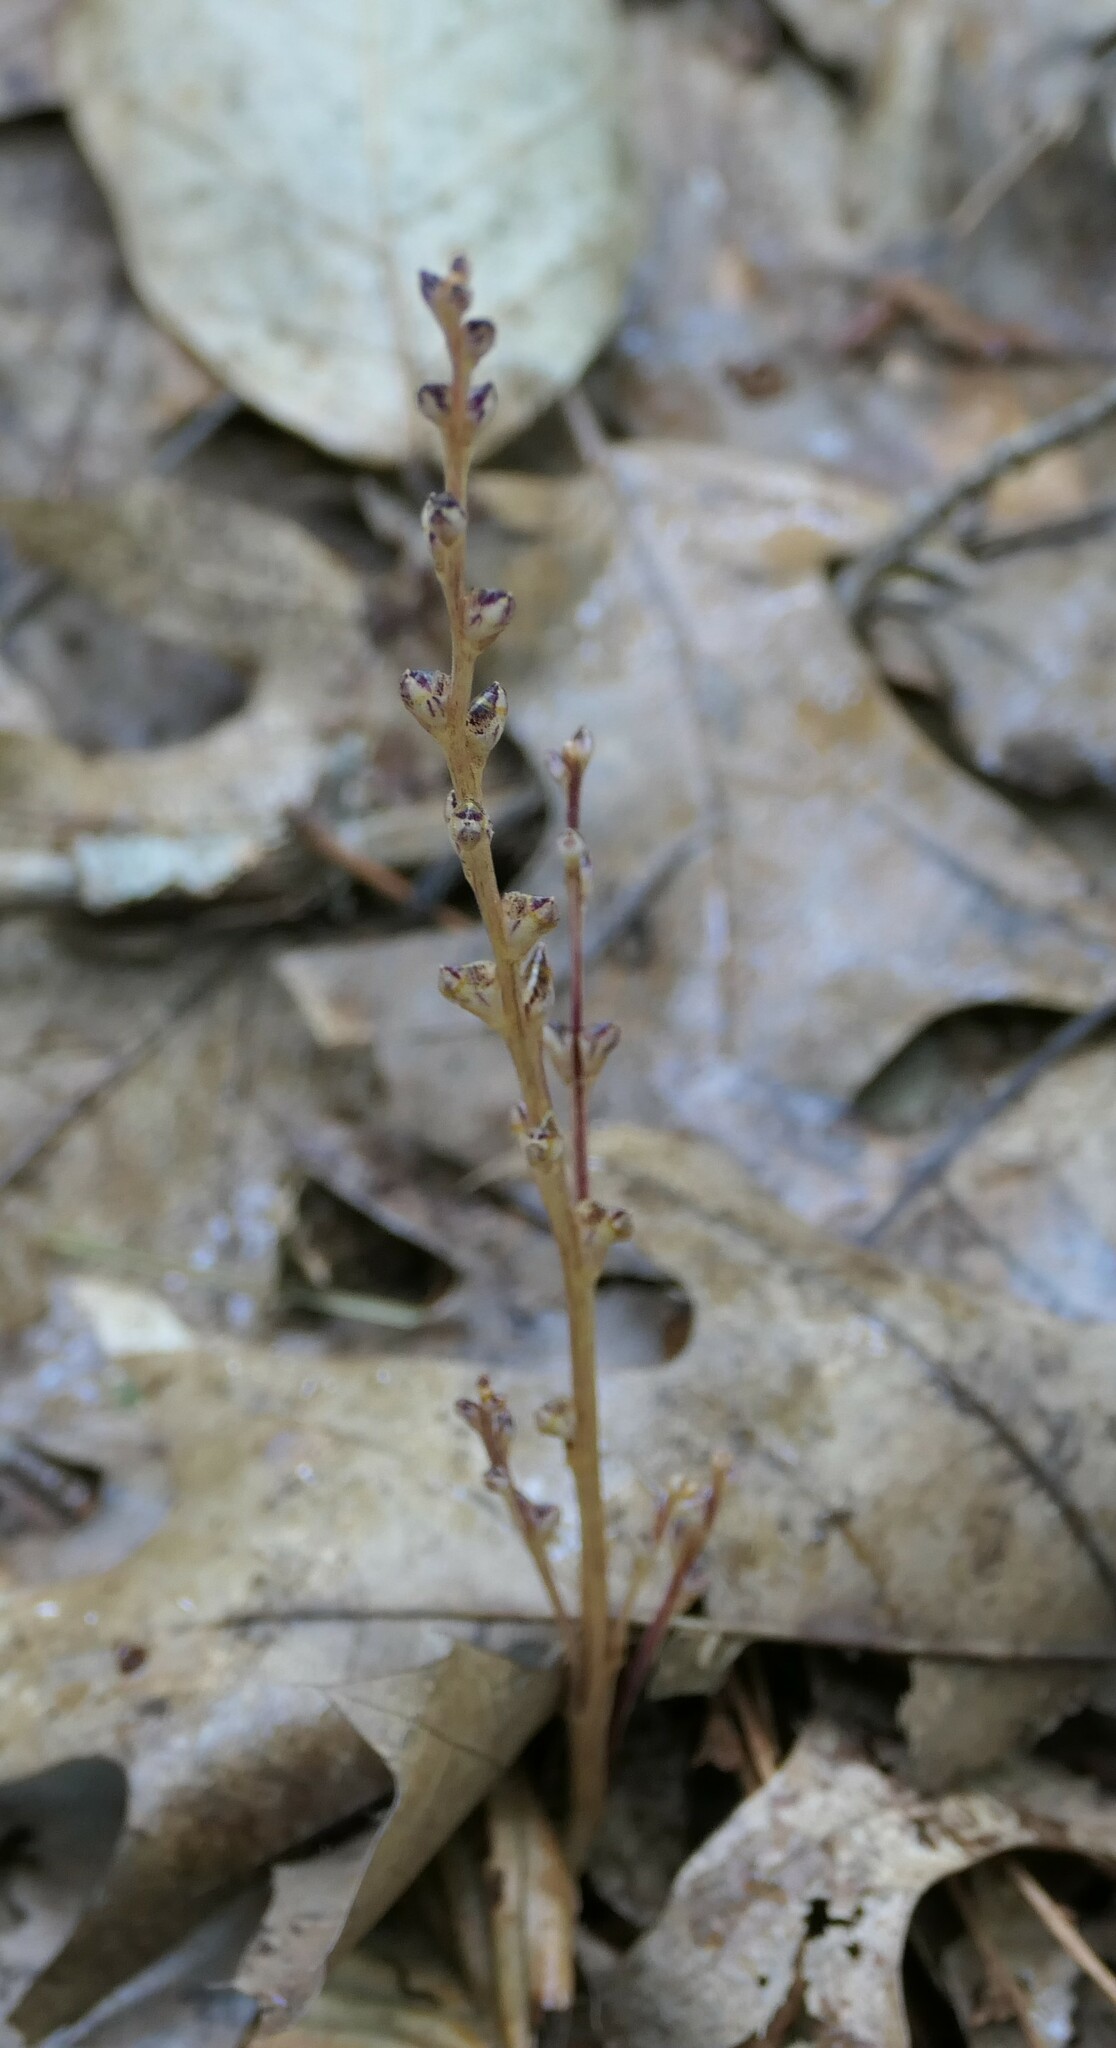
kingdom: Plantae
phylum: Tracheophyta
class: Magnoliopsida
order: Lamiales
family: Orobanchaceae
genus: Epifagus
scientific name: Epifagus virginiana
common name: Beechdrops
